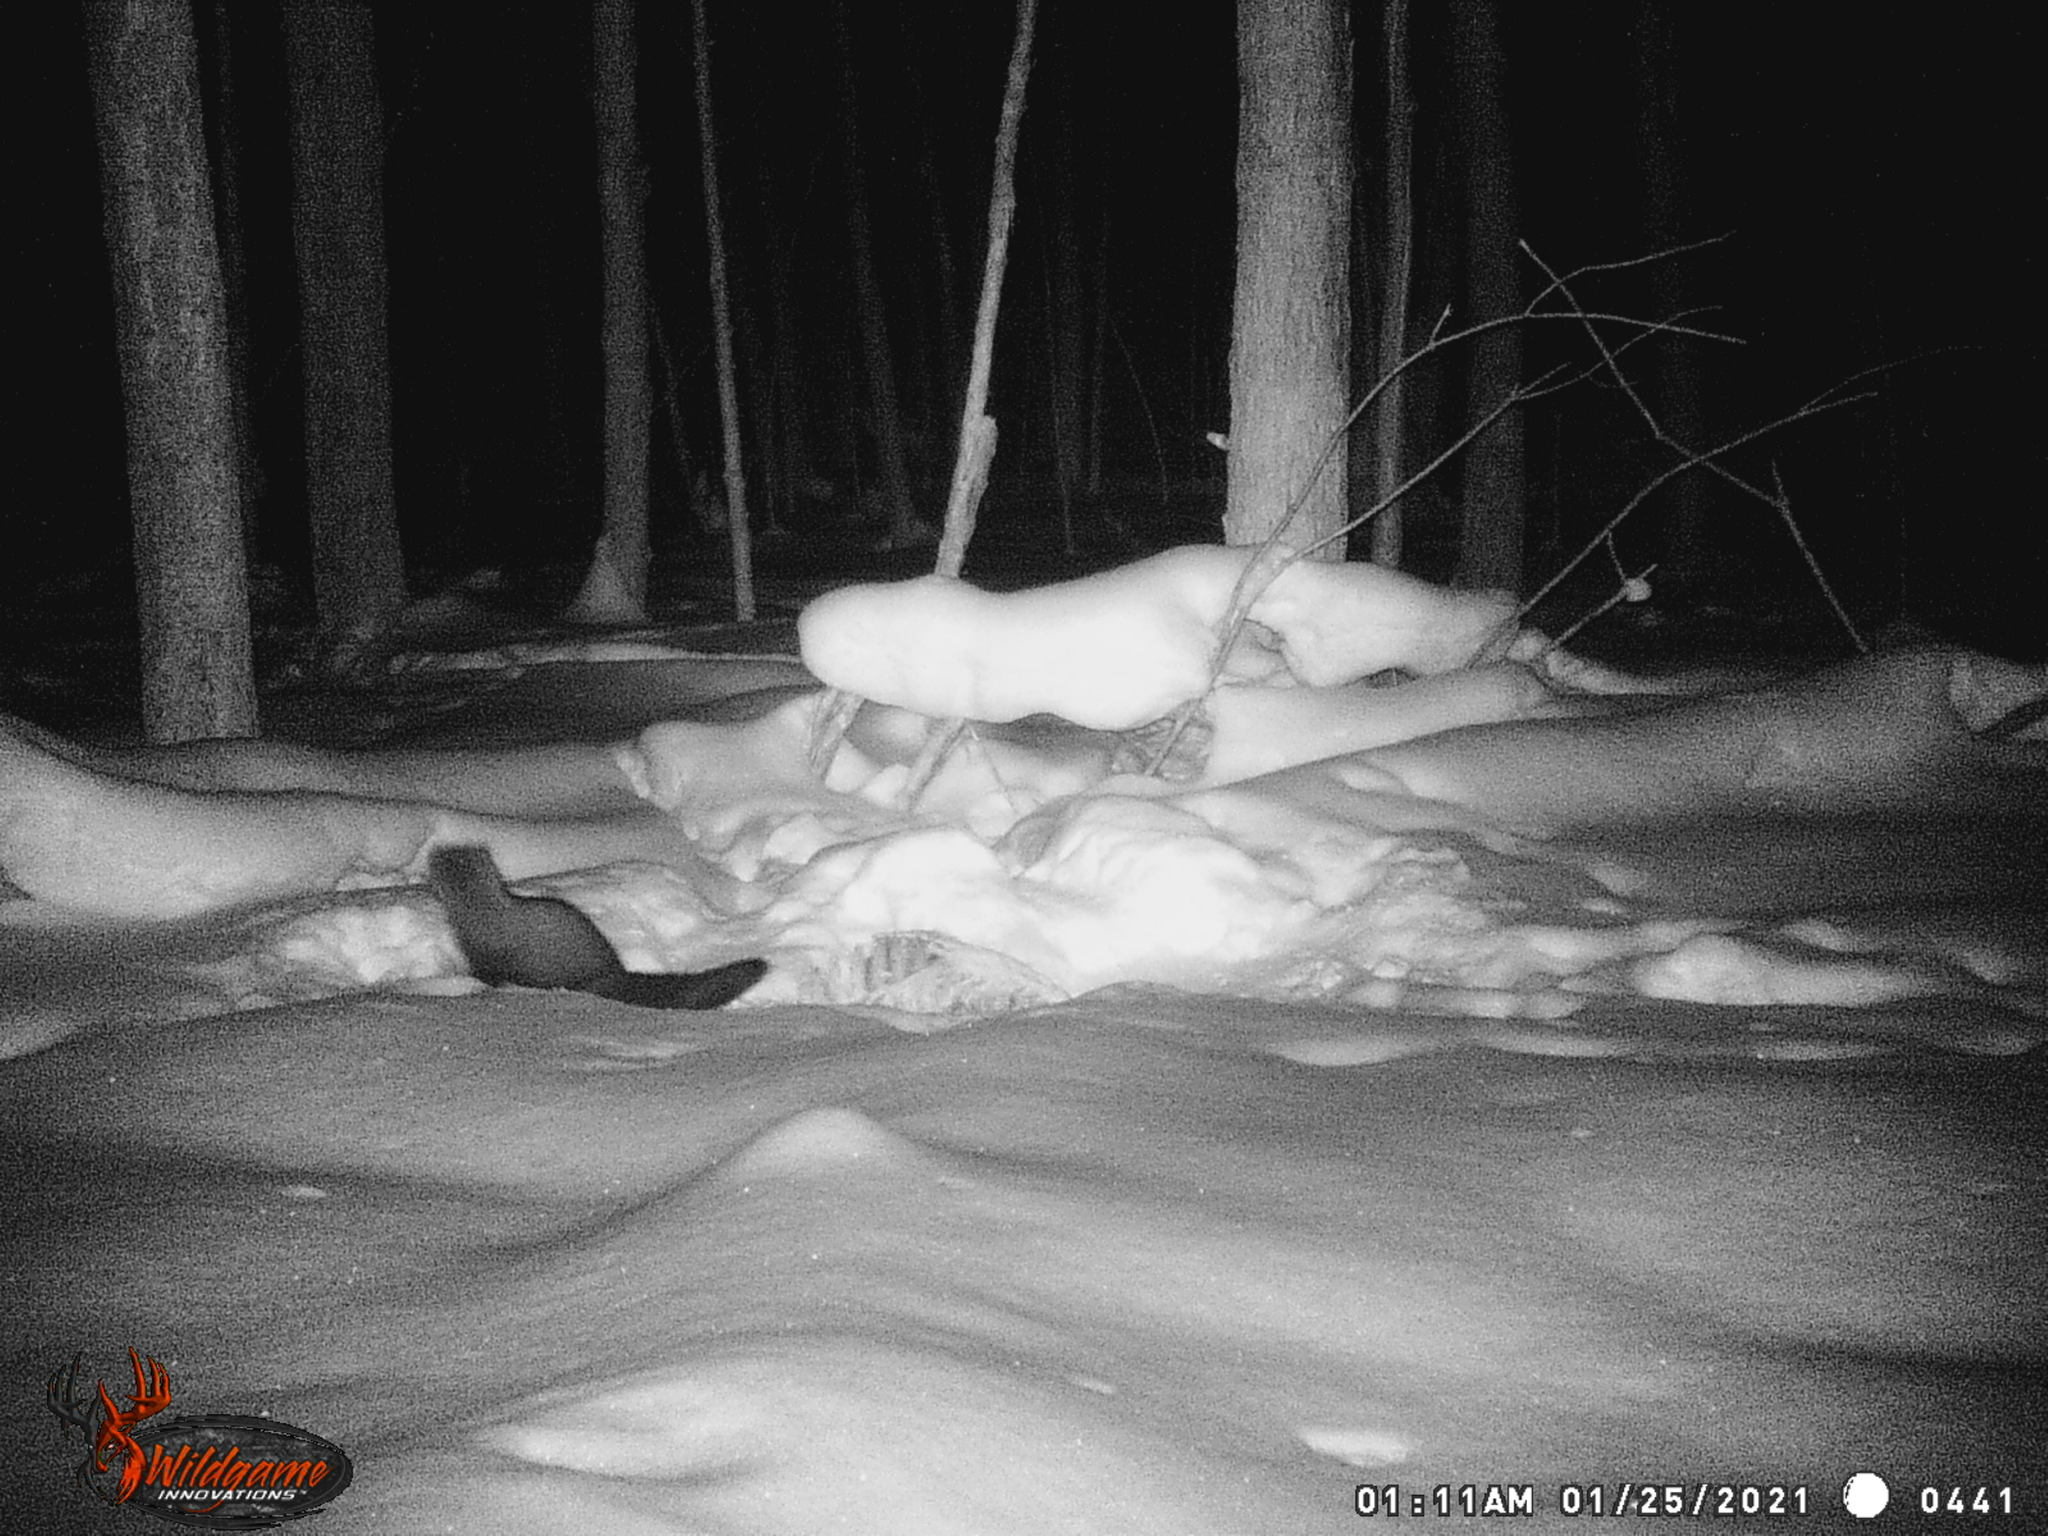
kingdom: Animalia
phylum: Chordata
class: Mammalia
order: Carnivora
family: Mustelidae
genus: Pekania
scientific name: Pekania pennanti
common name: Fisher
